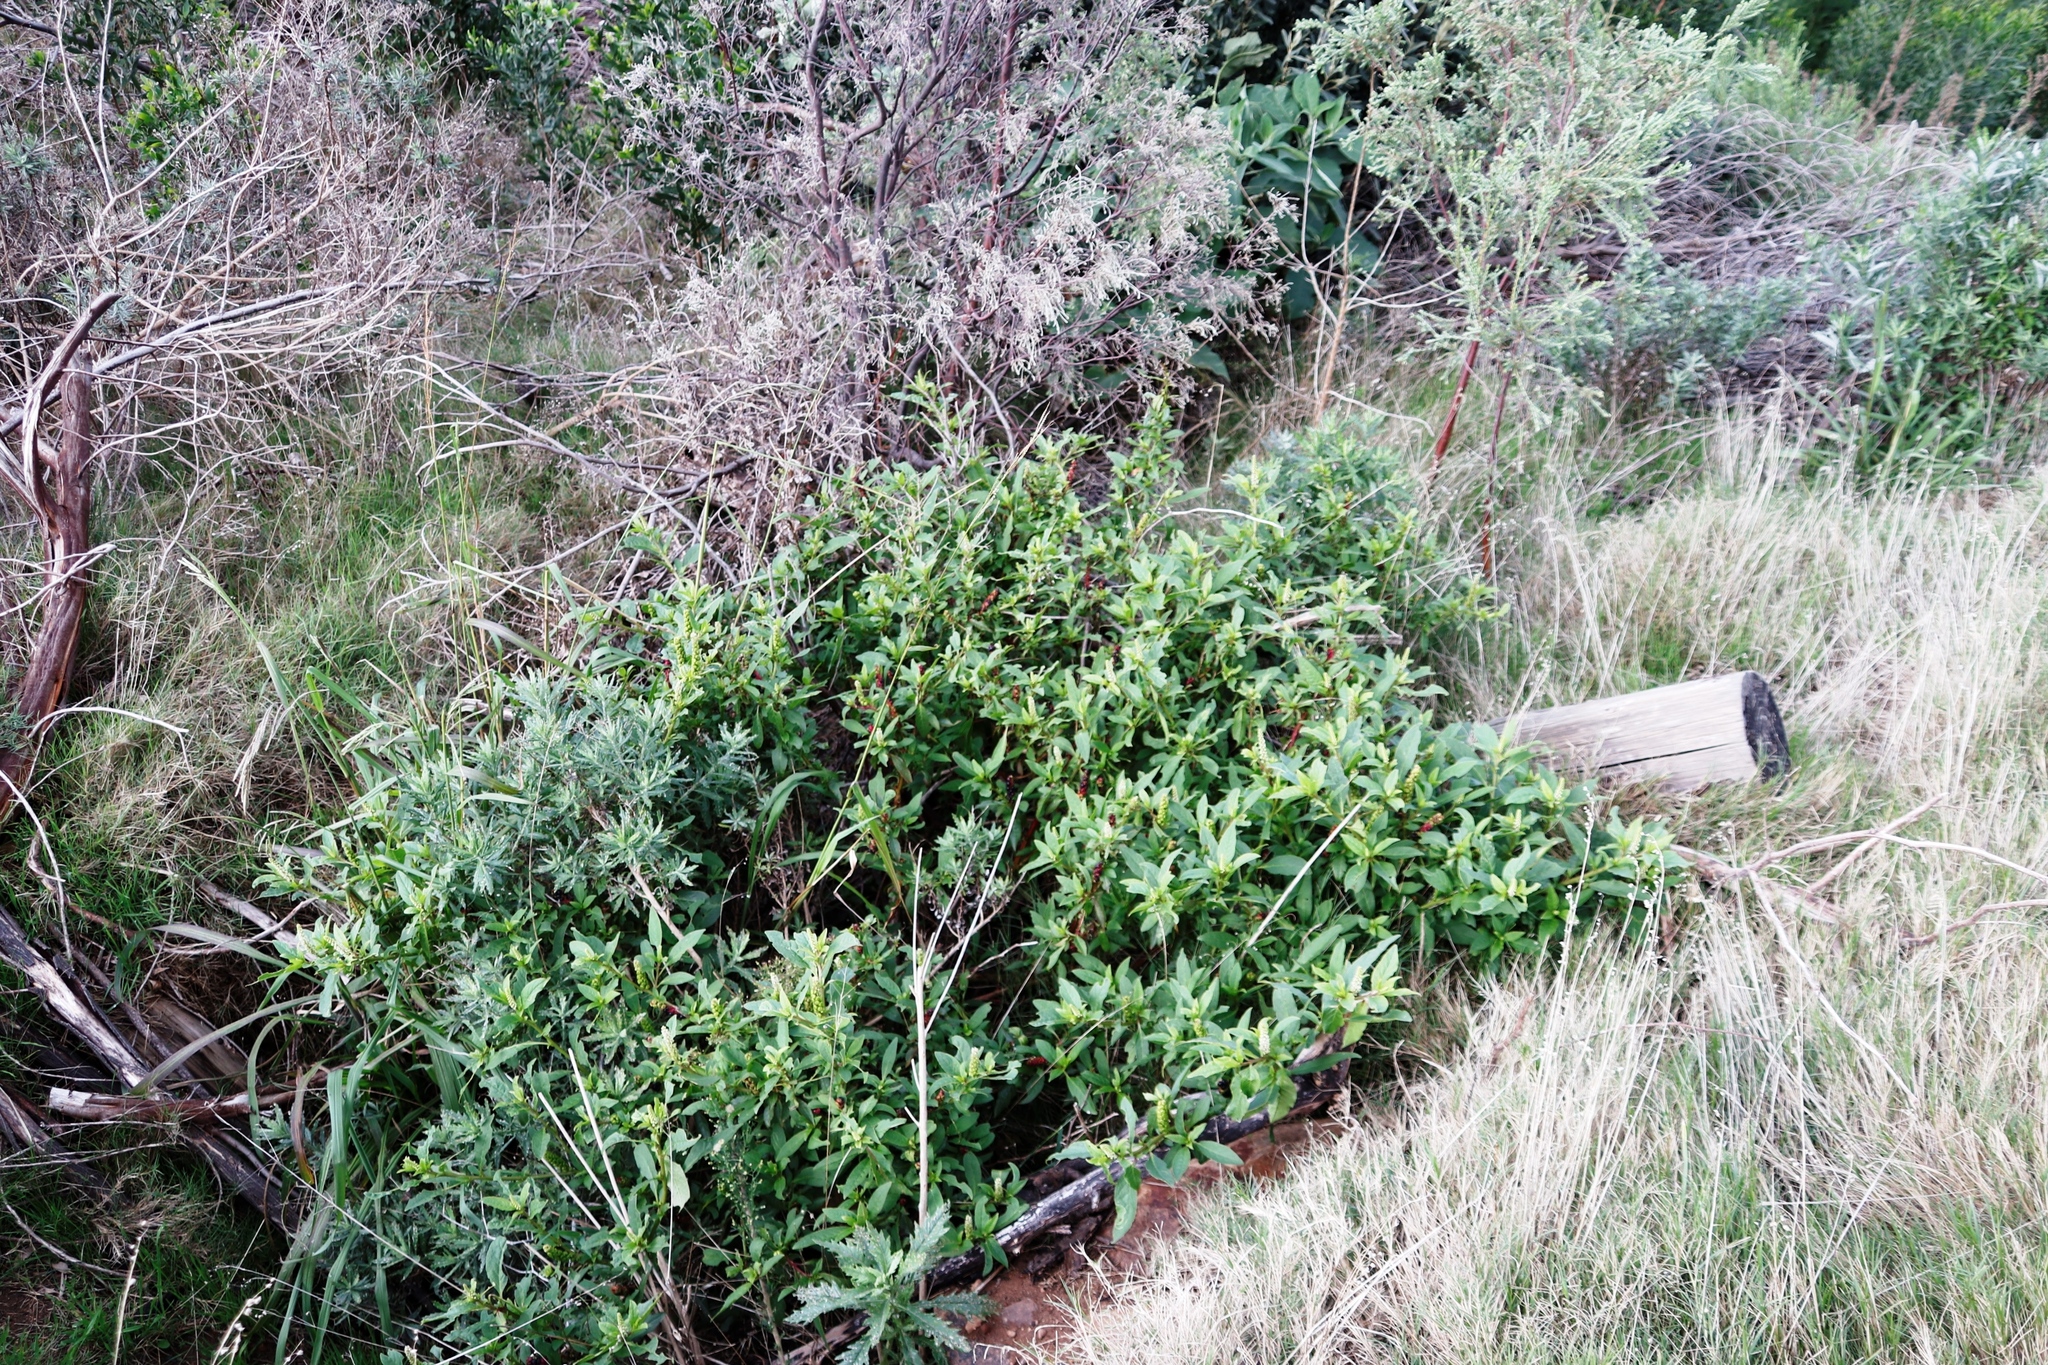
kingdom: Plantae
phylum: Tracheophyta
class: Magnoliopsida
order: Caryophyllales
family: Phytolaccaceae
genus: Phytolacca
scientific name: Phytolacca icosandra
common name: Button pokeweed
